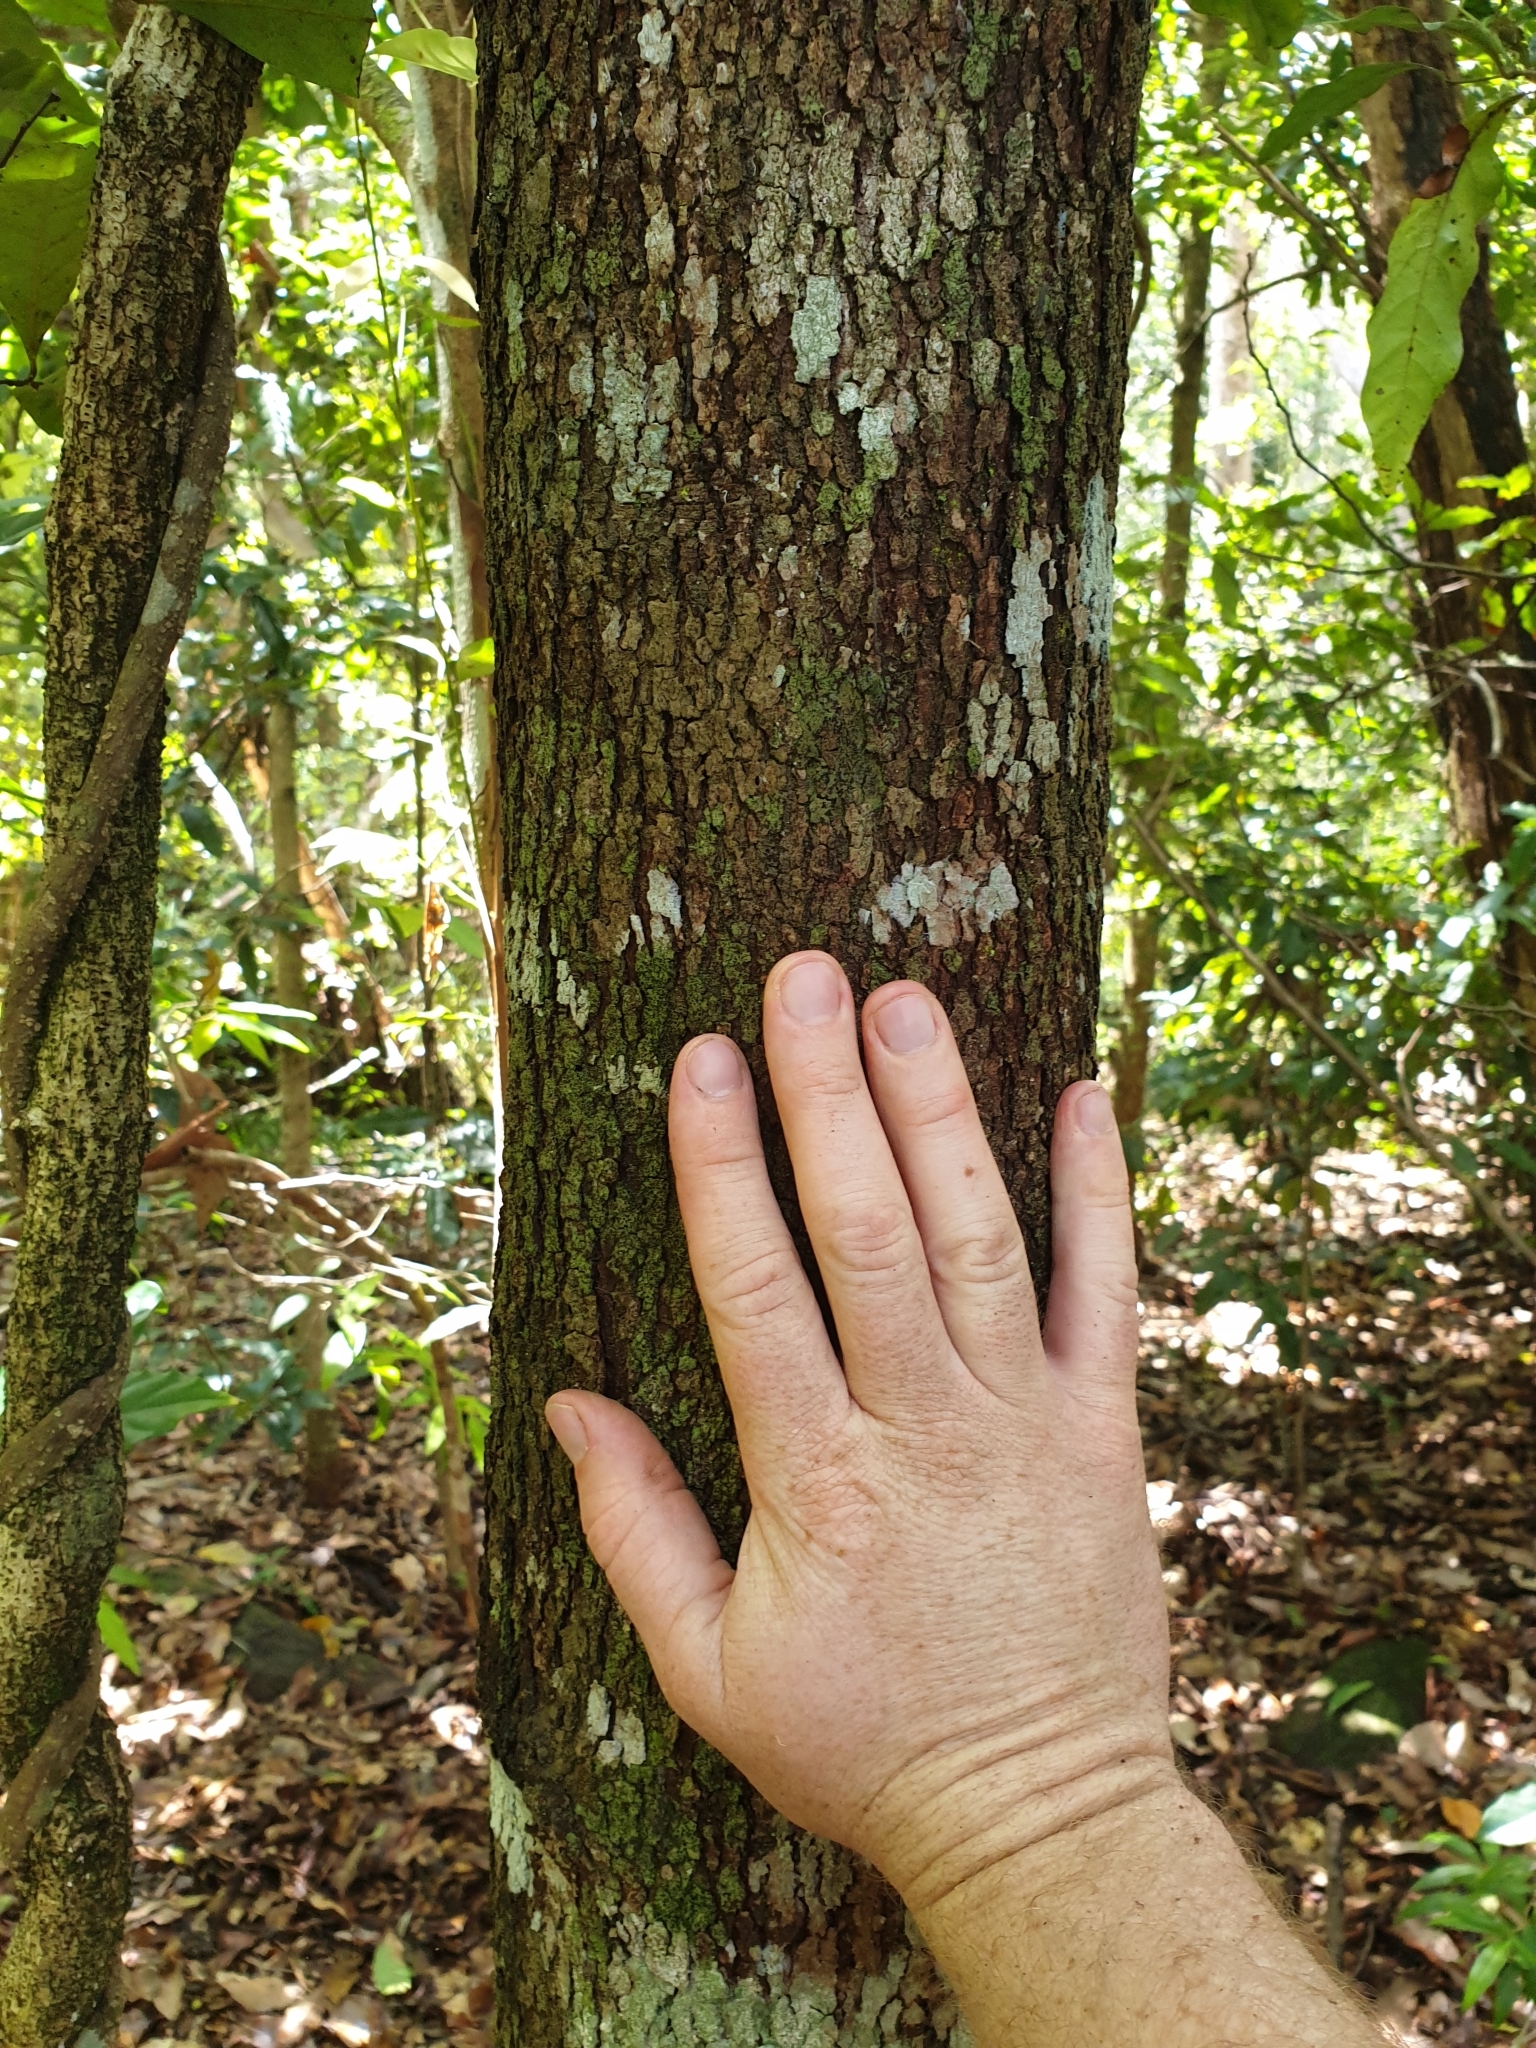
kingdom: Plantae
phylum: Tracheophyta
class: Magnoliopsida
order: Myrtales
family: Myrtaceae
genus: Syzygium
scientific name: Syzygium oleosum
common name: Oily satin-ash
